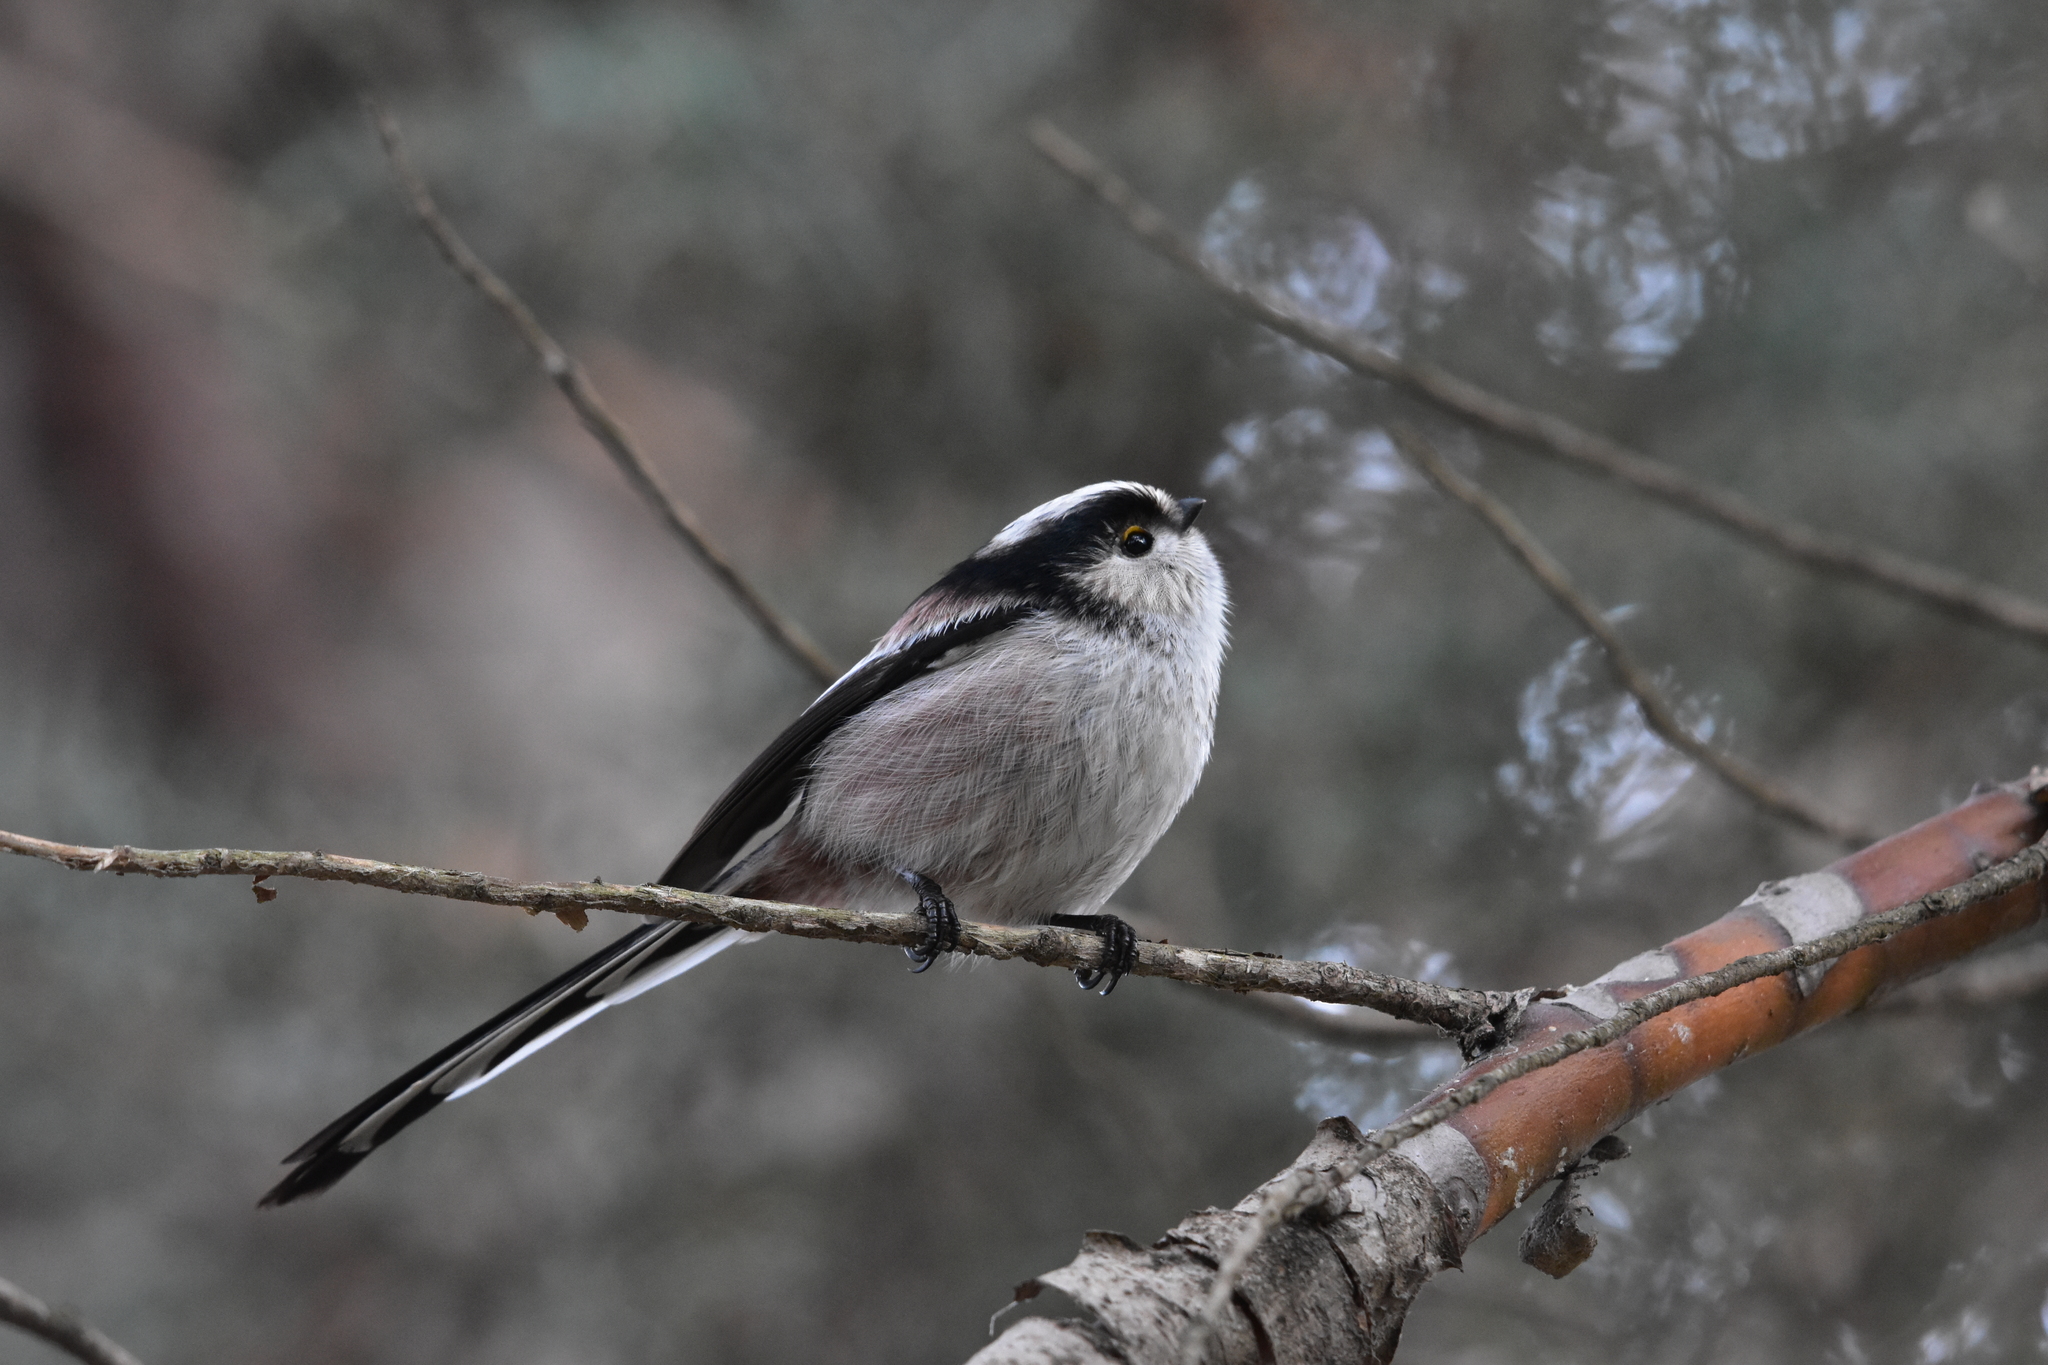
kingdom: Animalia
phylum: Chordata
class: Aves
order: Passeriformes
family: Aegithalidae
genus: Aegithalos
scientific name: Aegithalos caudatus
